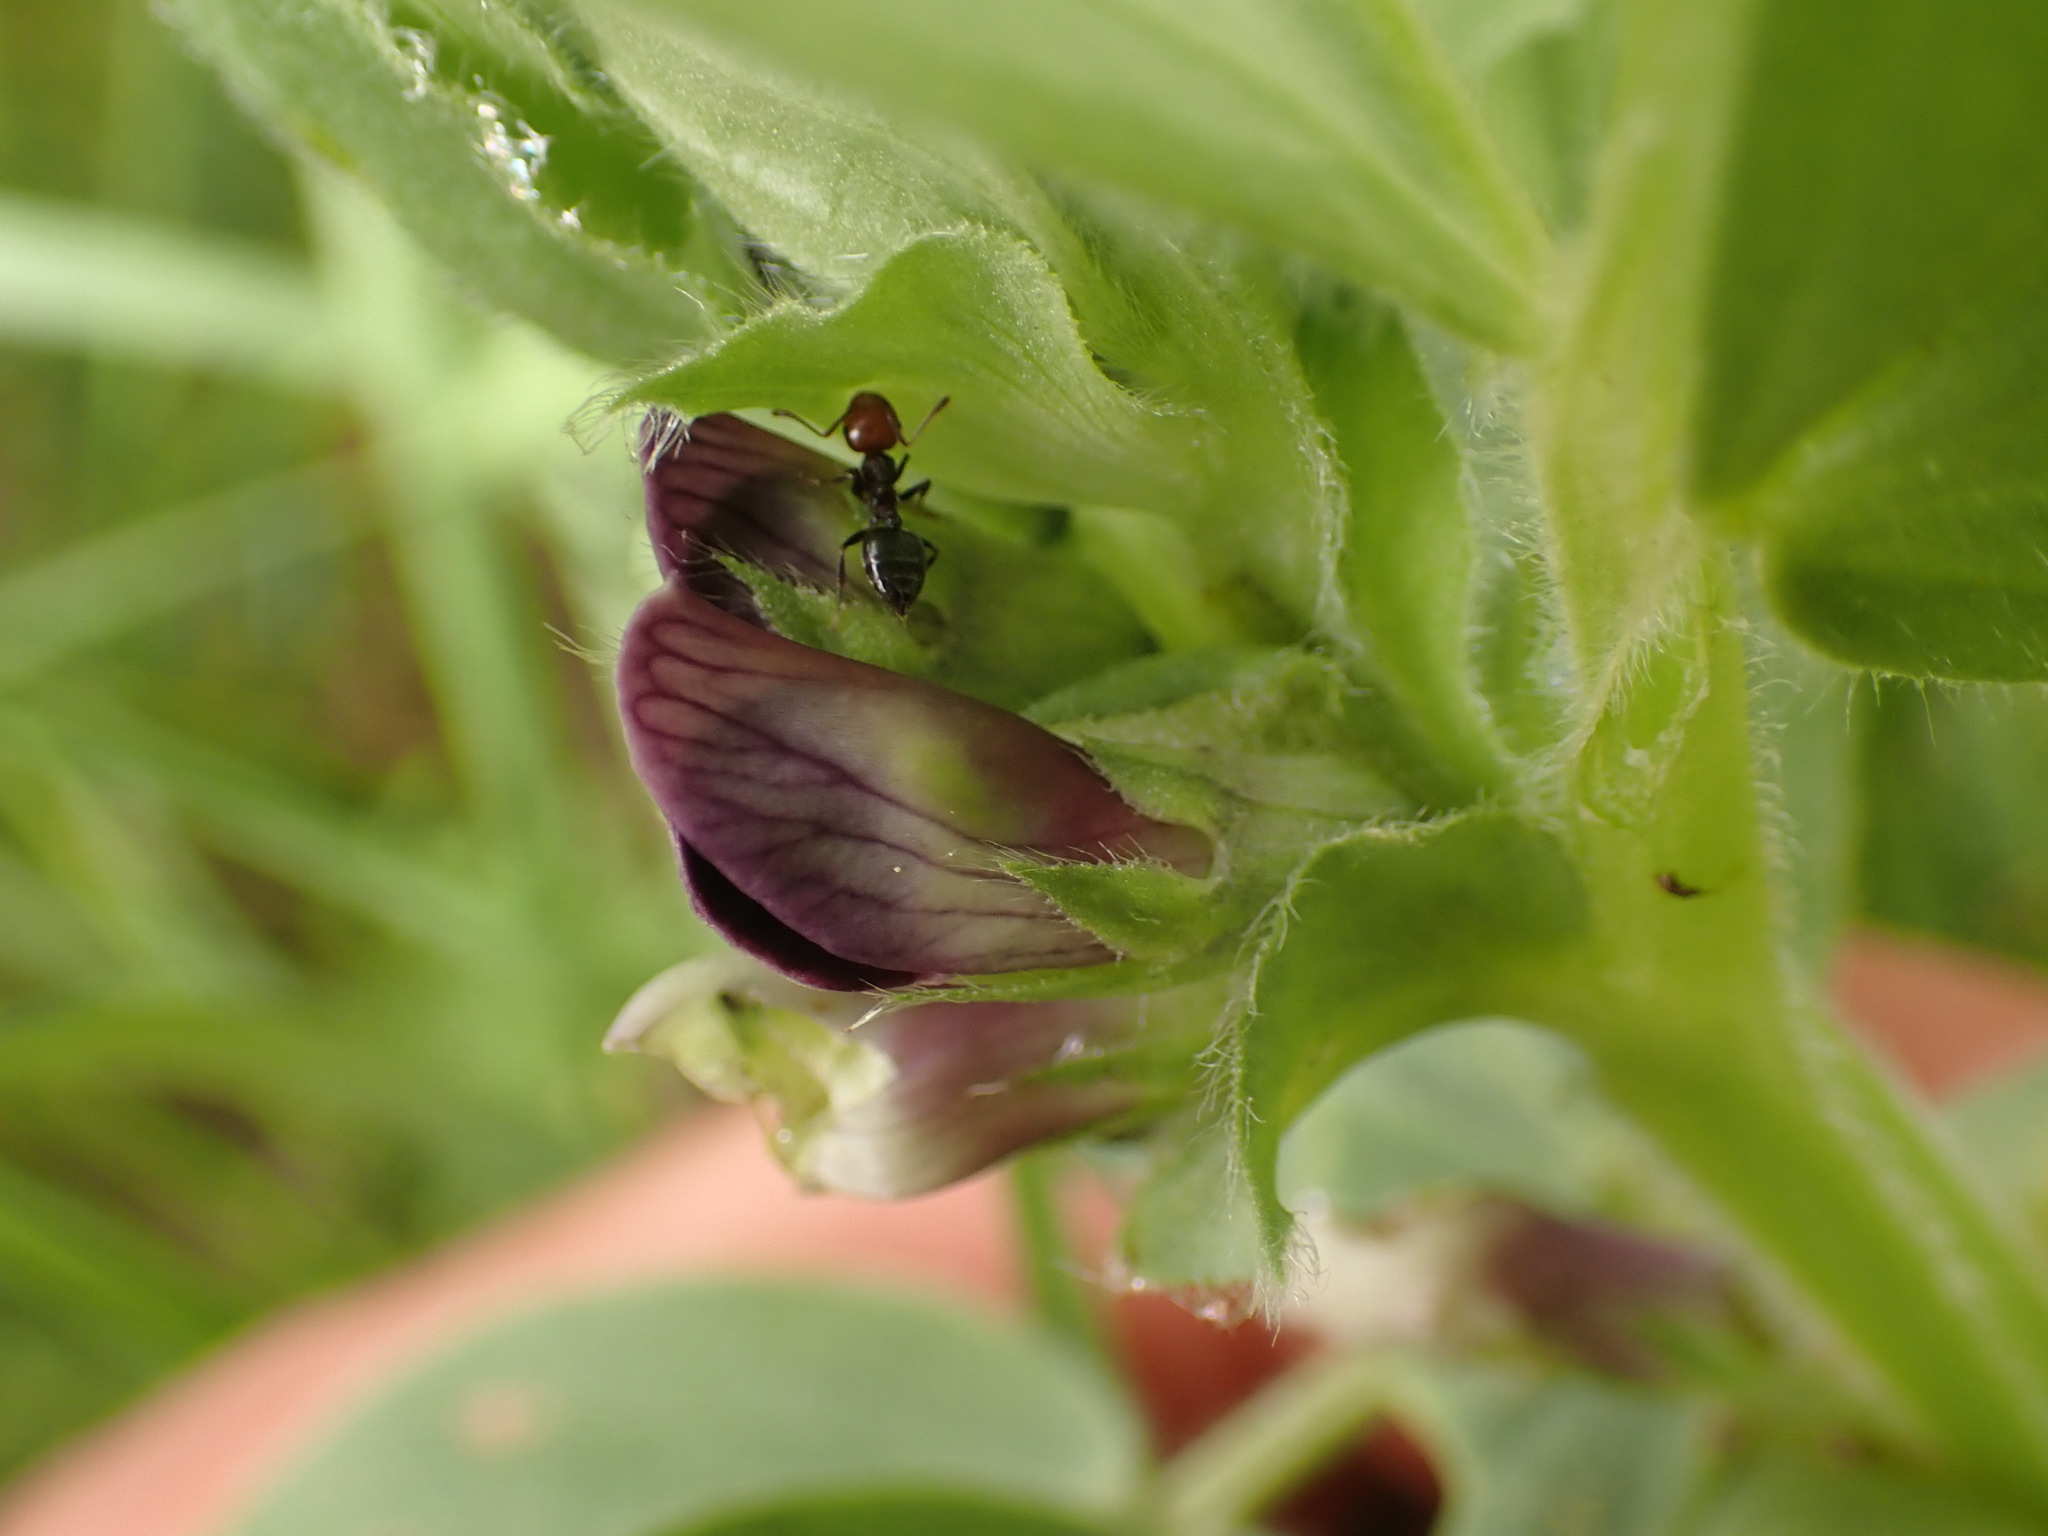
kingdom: Animalia
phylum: Arthropoda
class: Insecta
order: Hymenoptera
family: Formicidae
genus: Crematogaster
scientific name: Crematogaster scutellaris
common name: Fourmi du liège
